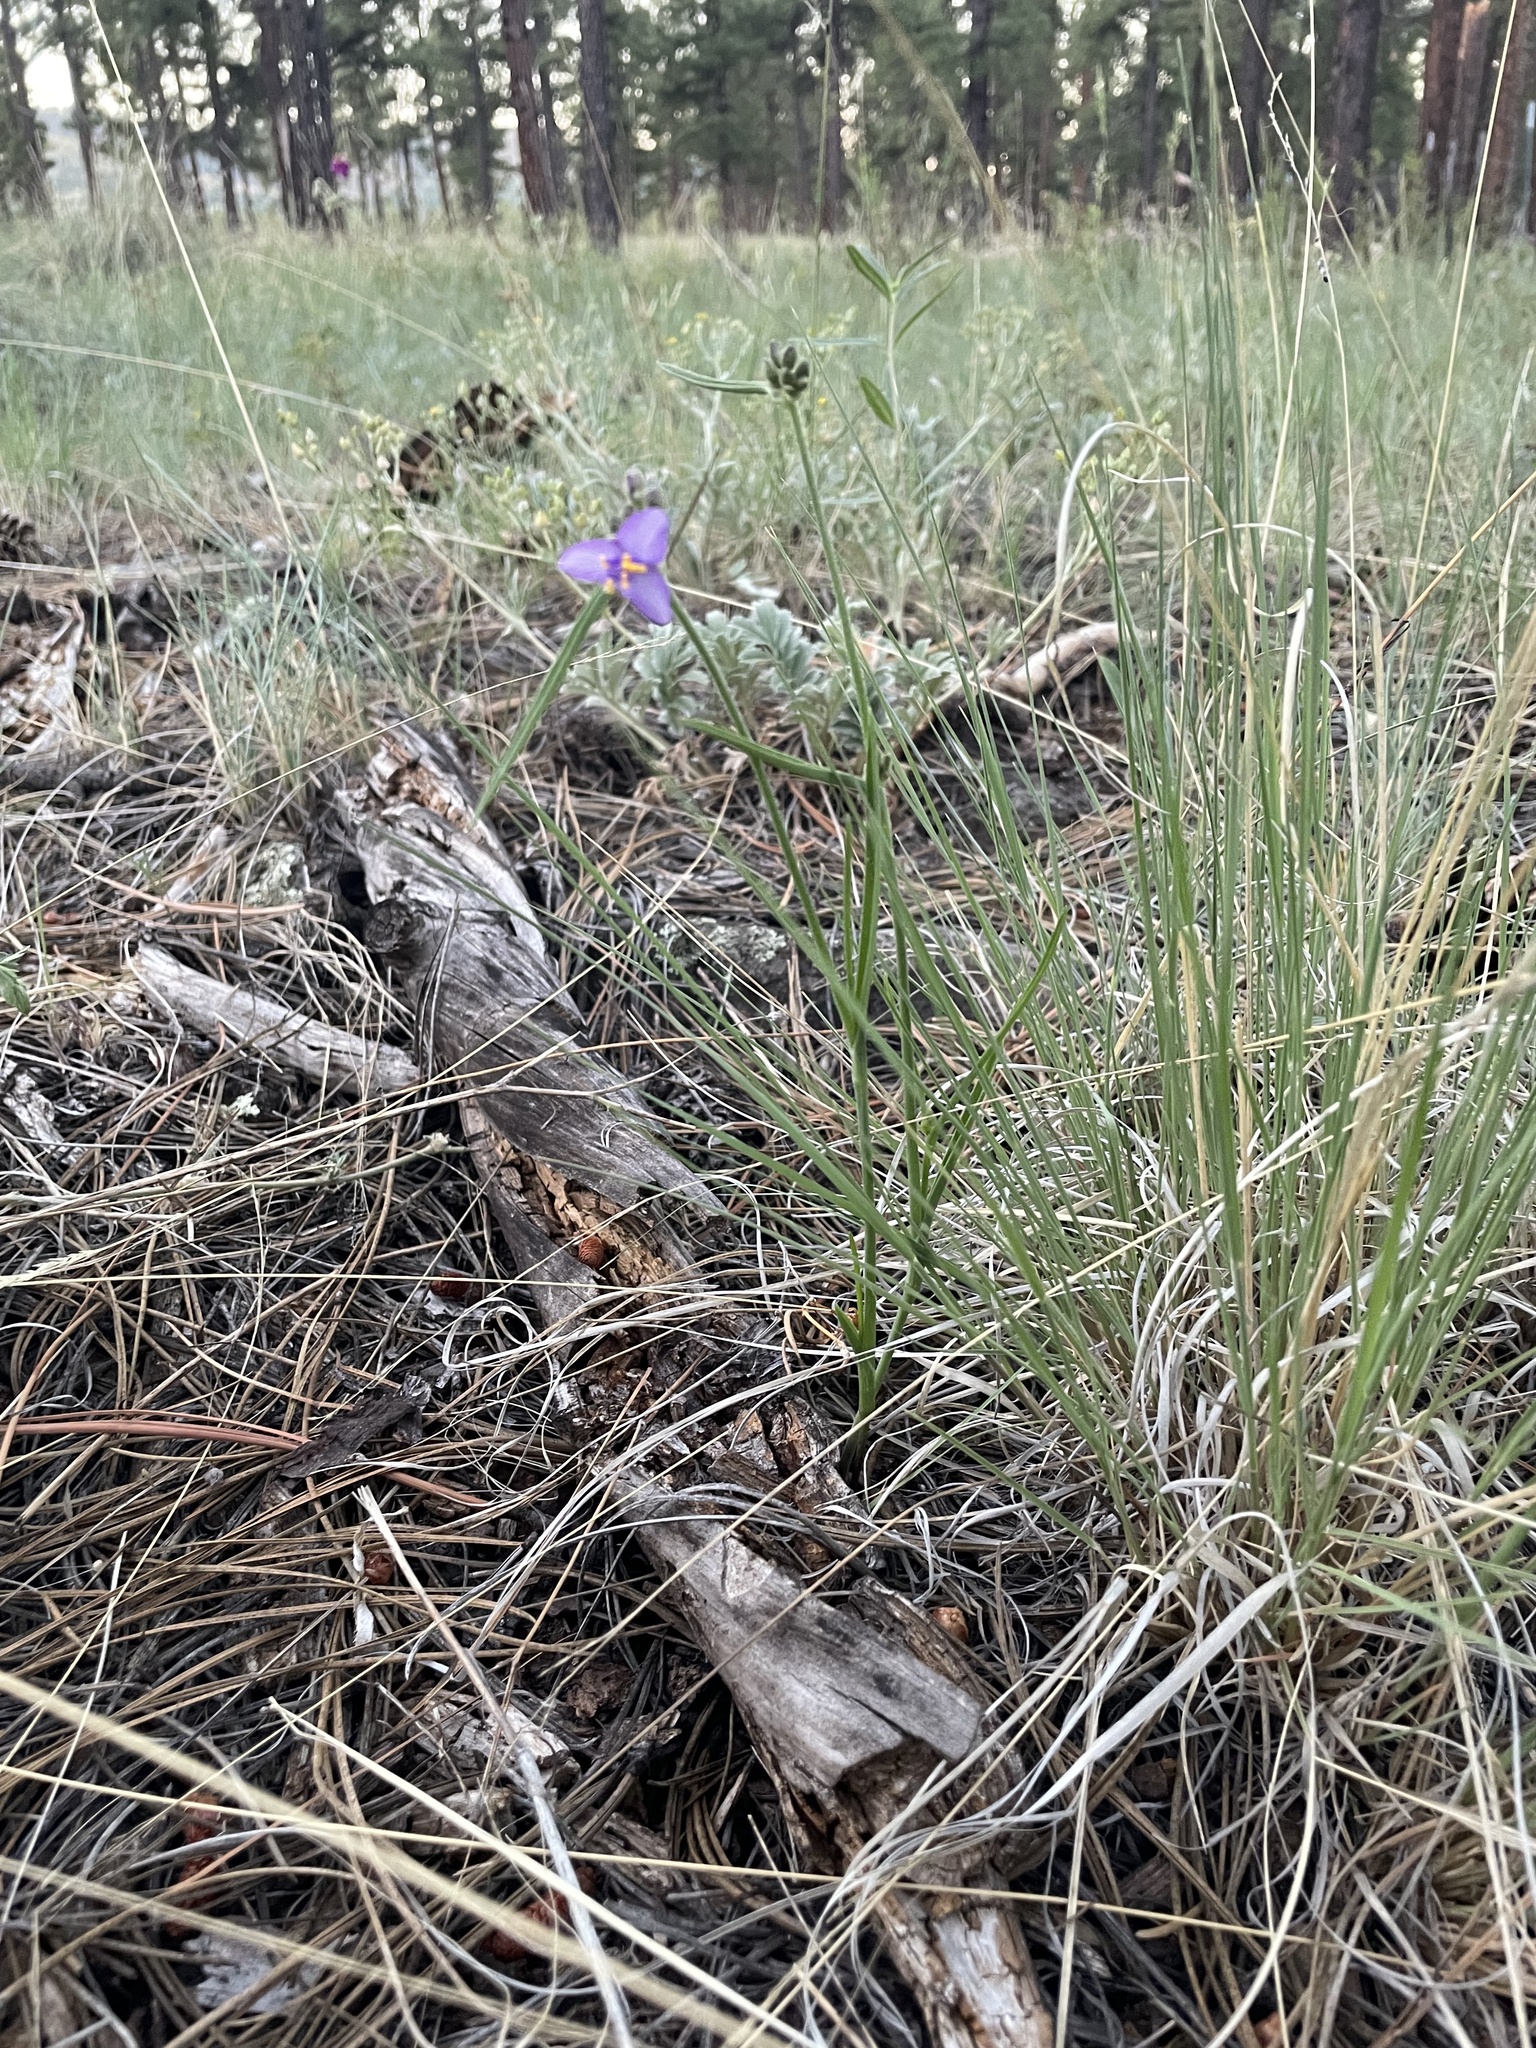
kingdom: Plantae
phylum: Tracheophyta
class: Liliopsida
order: Commelinales
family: Commelinaceae
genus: Tradescantia
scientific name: Tradescantia pinetorum
